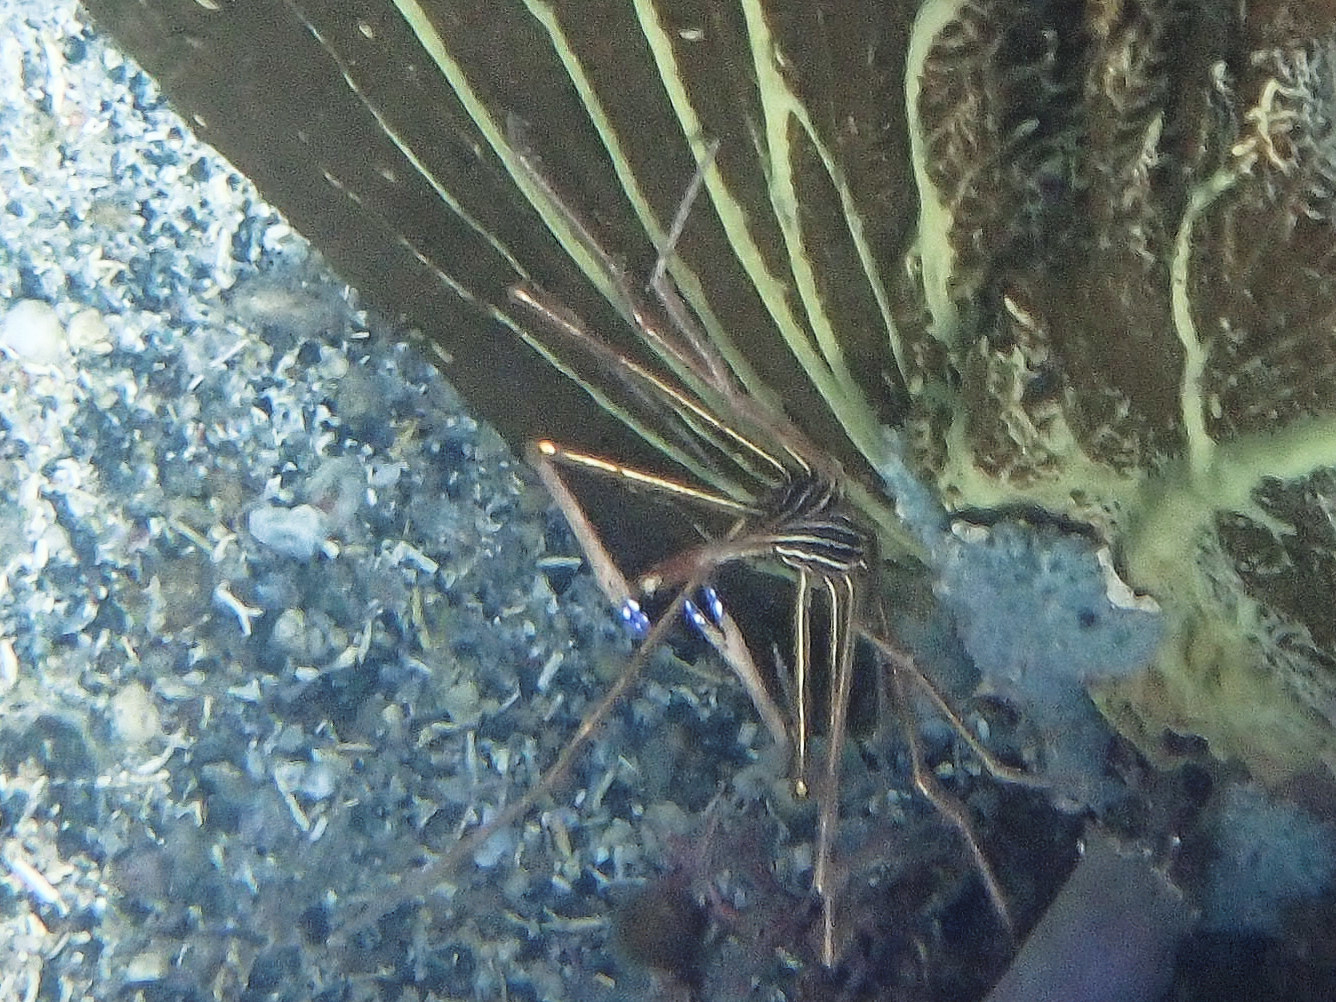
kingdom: Animalia
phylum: Arthropoda
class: Malacostraca
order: Decapoda
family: Inachoididae
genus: Stenorhynchus
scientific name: Stenorhynchus seticornis
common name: Arrow crab
